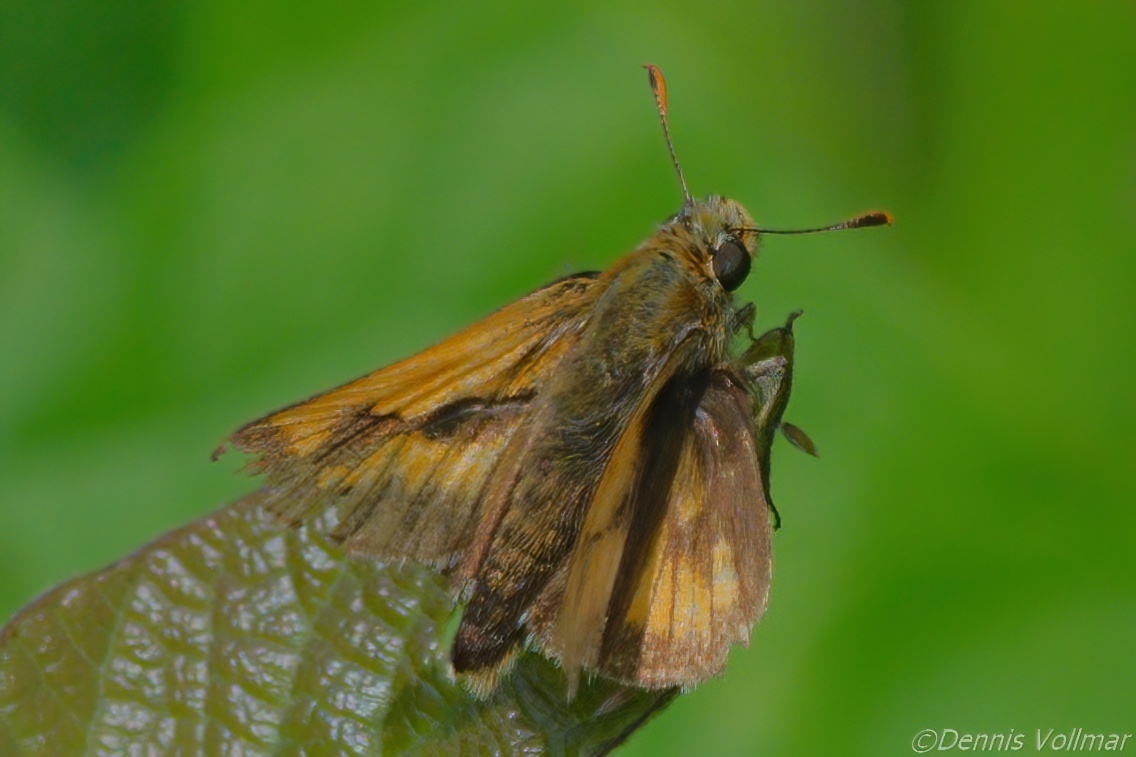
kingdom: Animalia
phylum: Arthropoda
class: Insecta
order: Lepidoptera
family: Hesperiidae
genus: Polites
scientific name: Polites mystic
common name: Long dash
